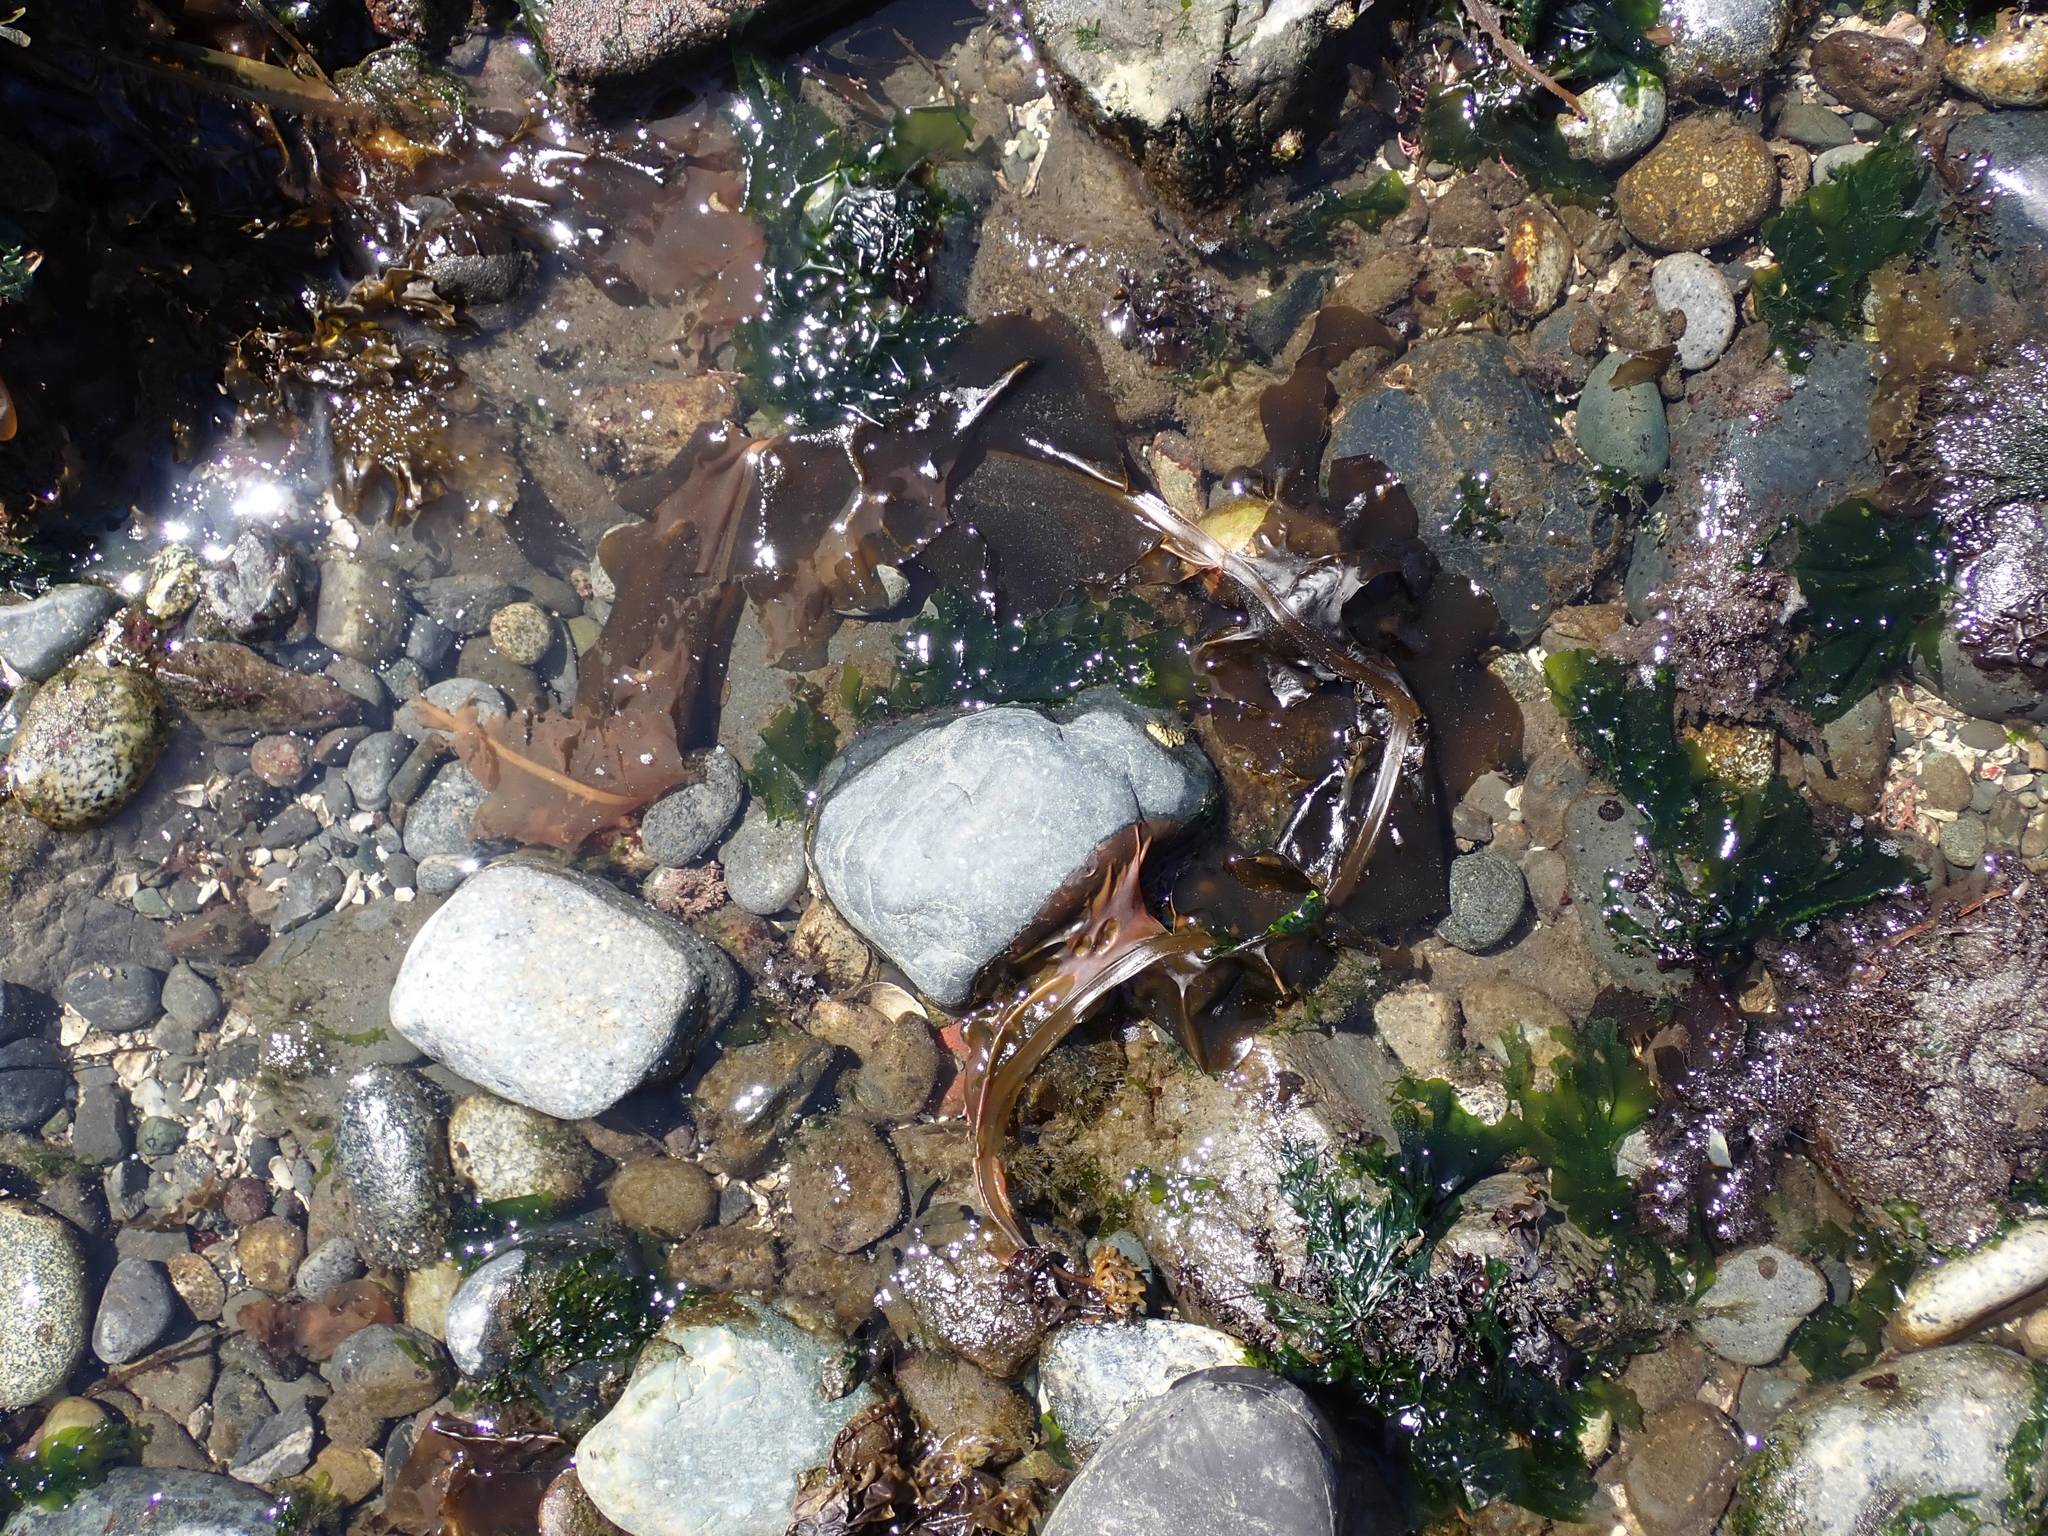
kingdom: Chromista
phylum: Ochrophyta
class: Phaeophyceae
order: Laminariales
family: Alariaceae
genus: Alaria
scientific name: Alaria marginata
